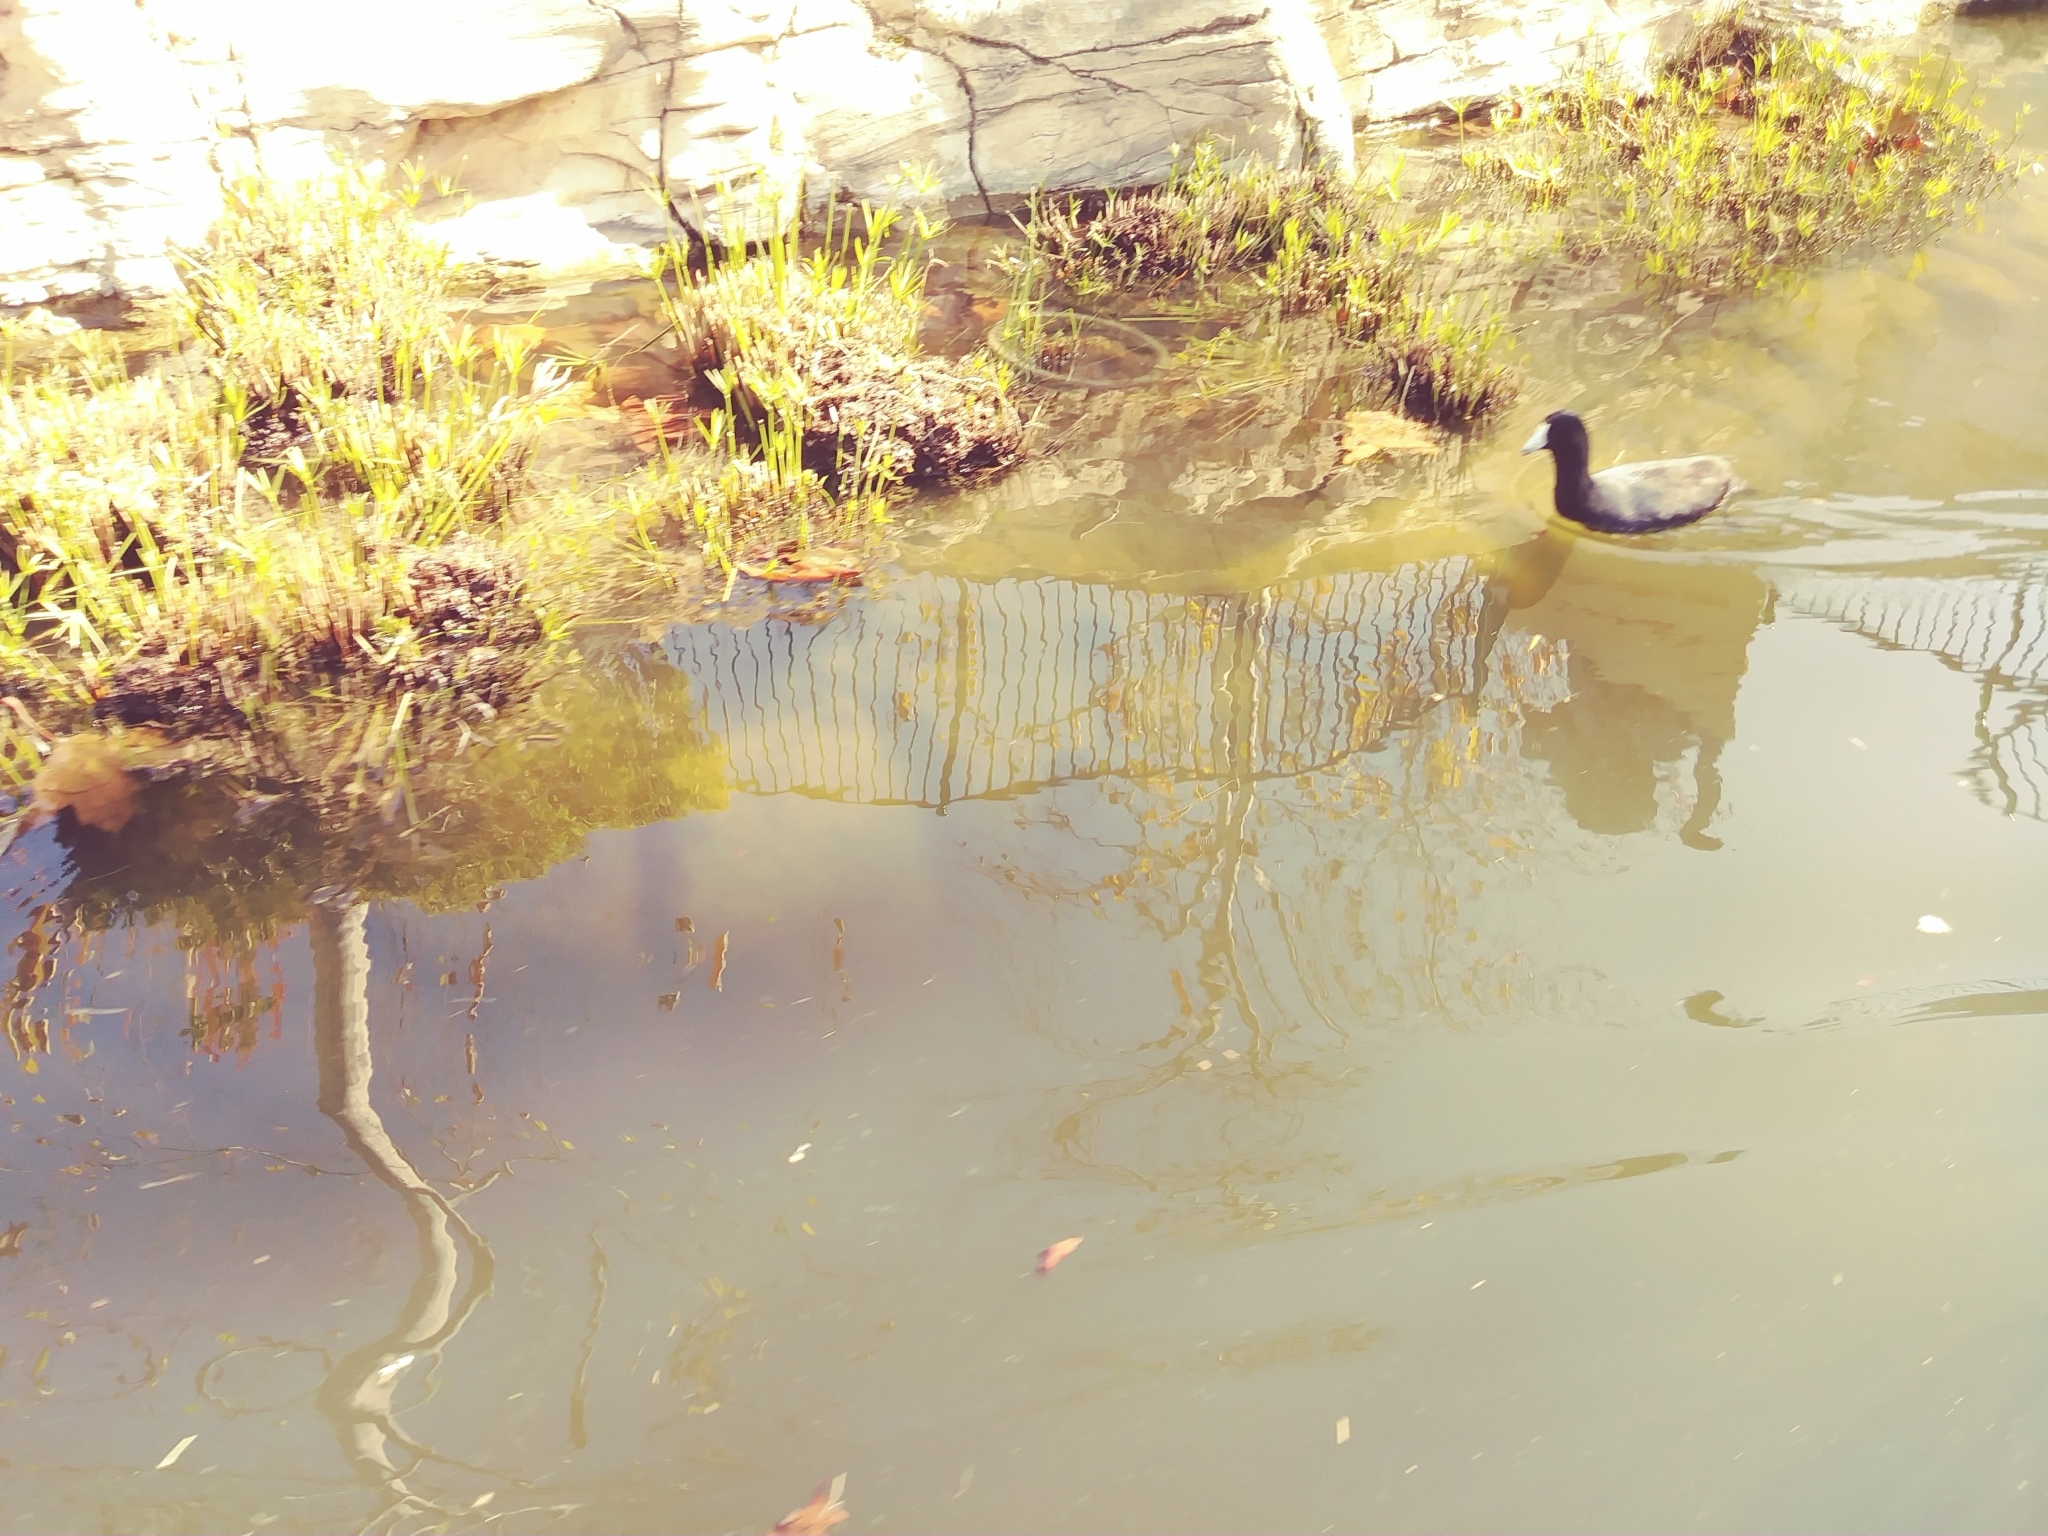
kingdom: Animalia
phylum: Chordata
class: Aves
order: Gruiformes
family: Rallidae
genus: Fulica
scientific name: Fulica americana
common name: American coot
